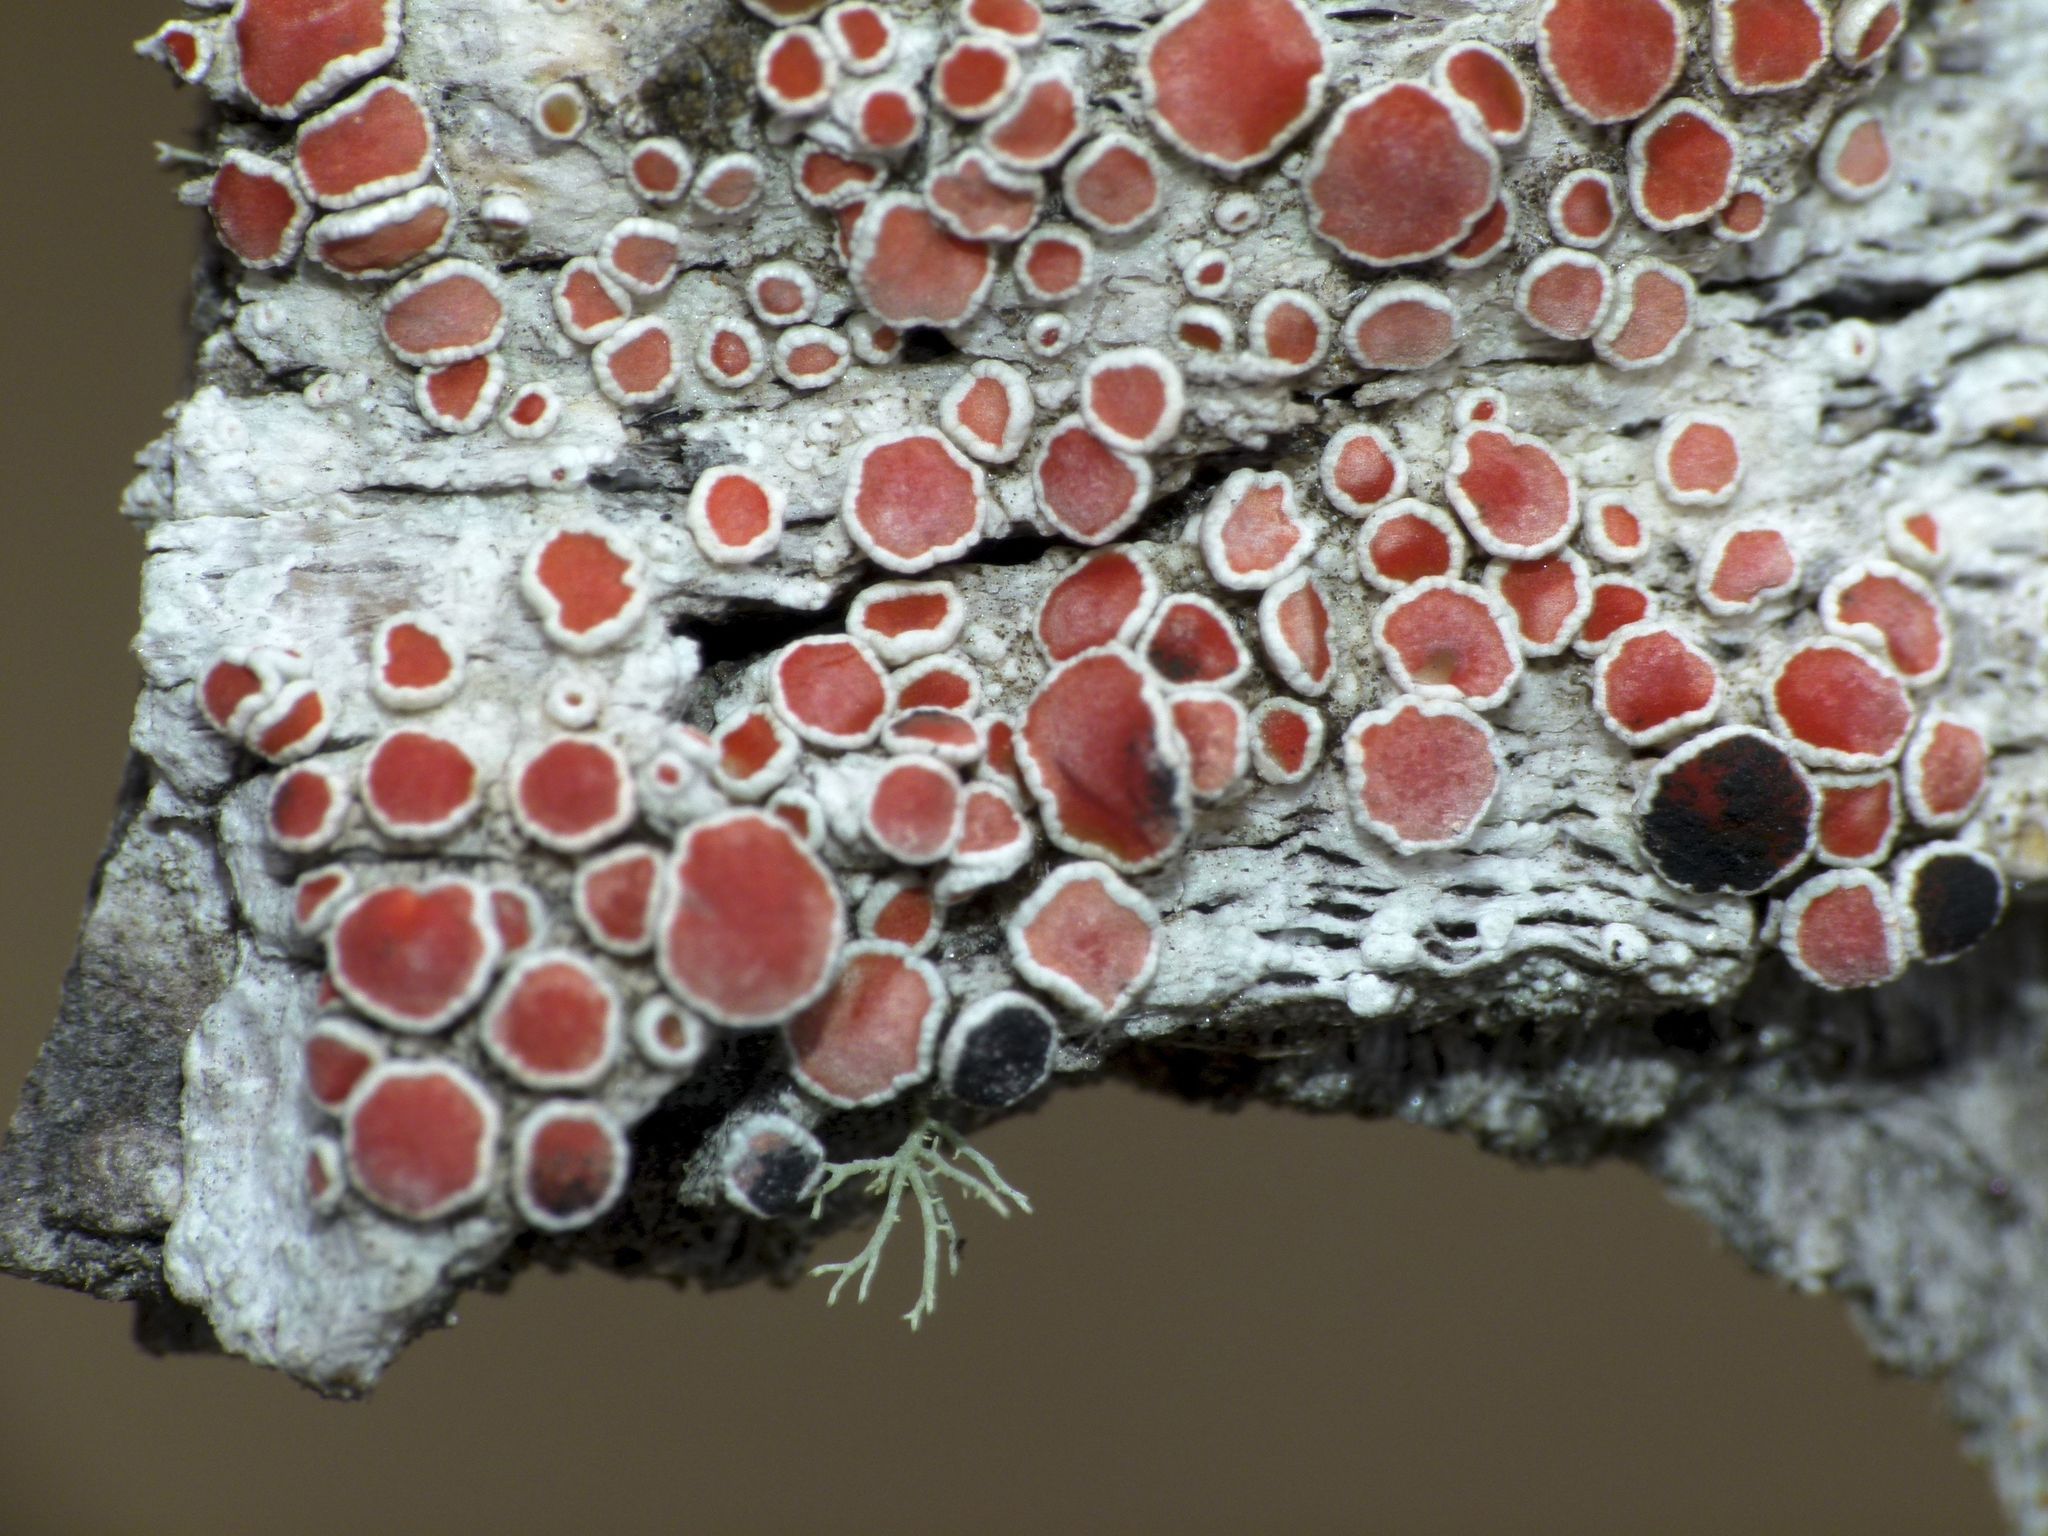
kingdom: Fungi
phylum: Ascomycota
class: Lecanoromycetes
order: Lecanorales
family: Haematommataceae
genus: Haematomma
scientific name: Haematomma babingtonii
